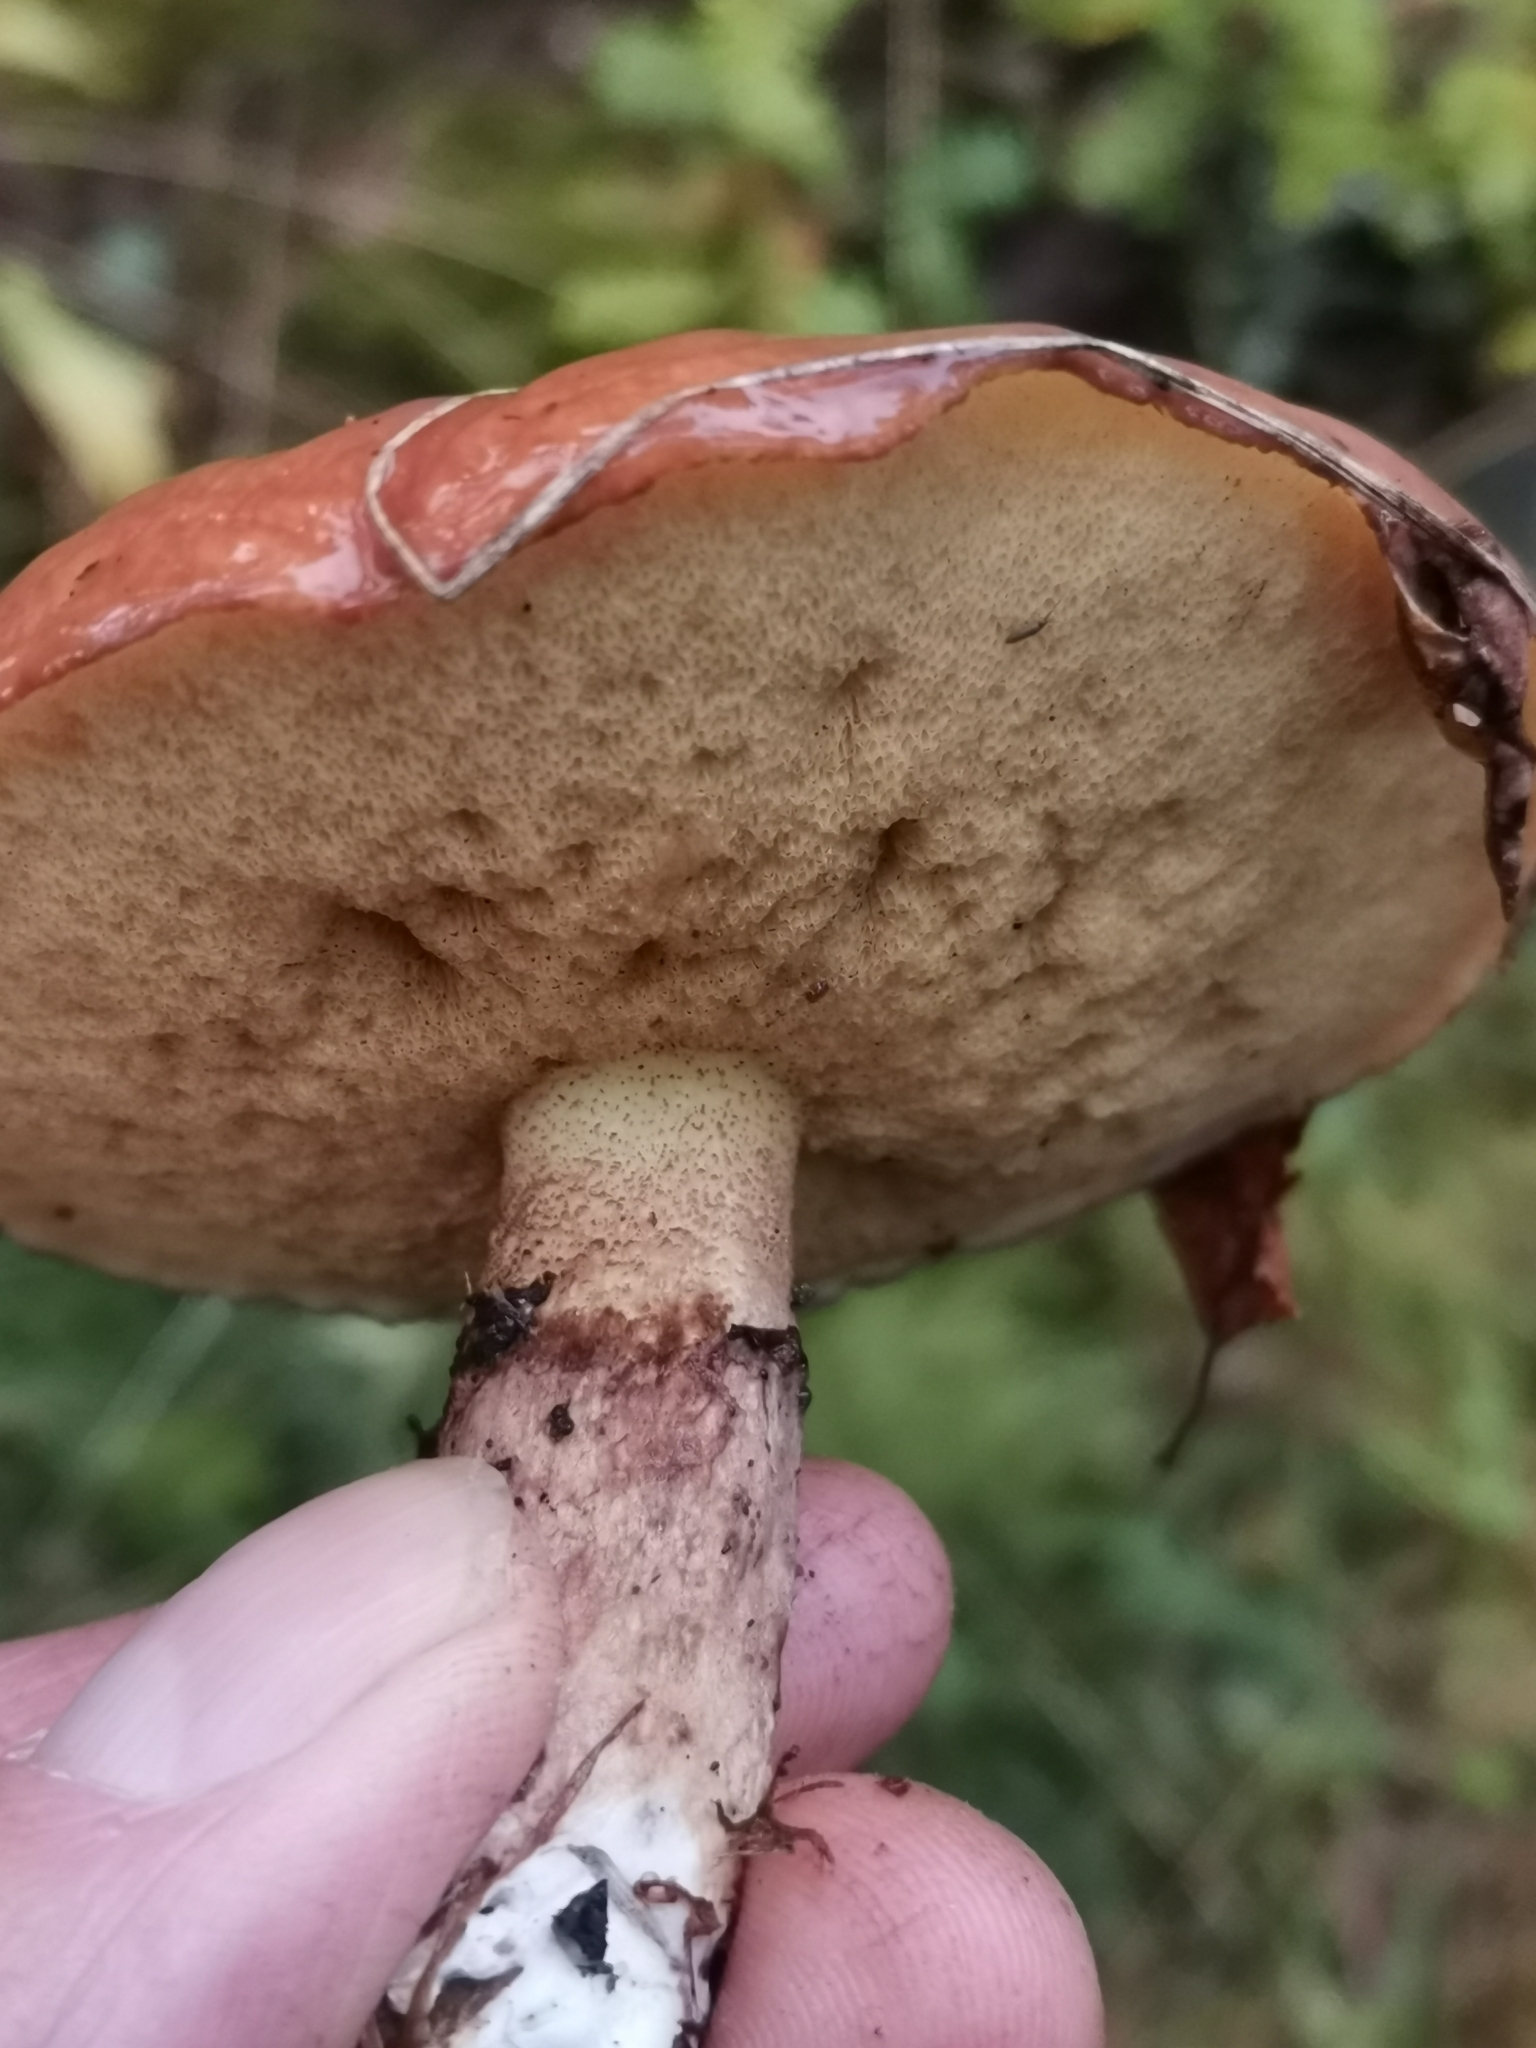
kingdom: Fungi
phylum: Basidiomycota
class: Agaricomycetes
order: Boletales
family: Suillaceae
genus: Suillus
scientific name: Suillus luteus
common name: Slippery jack
